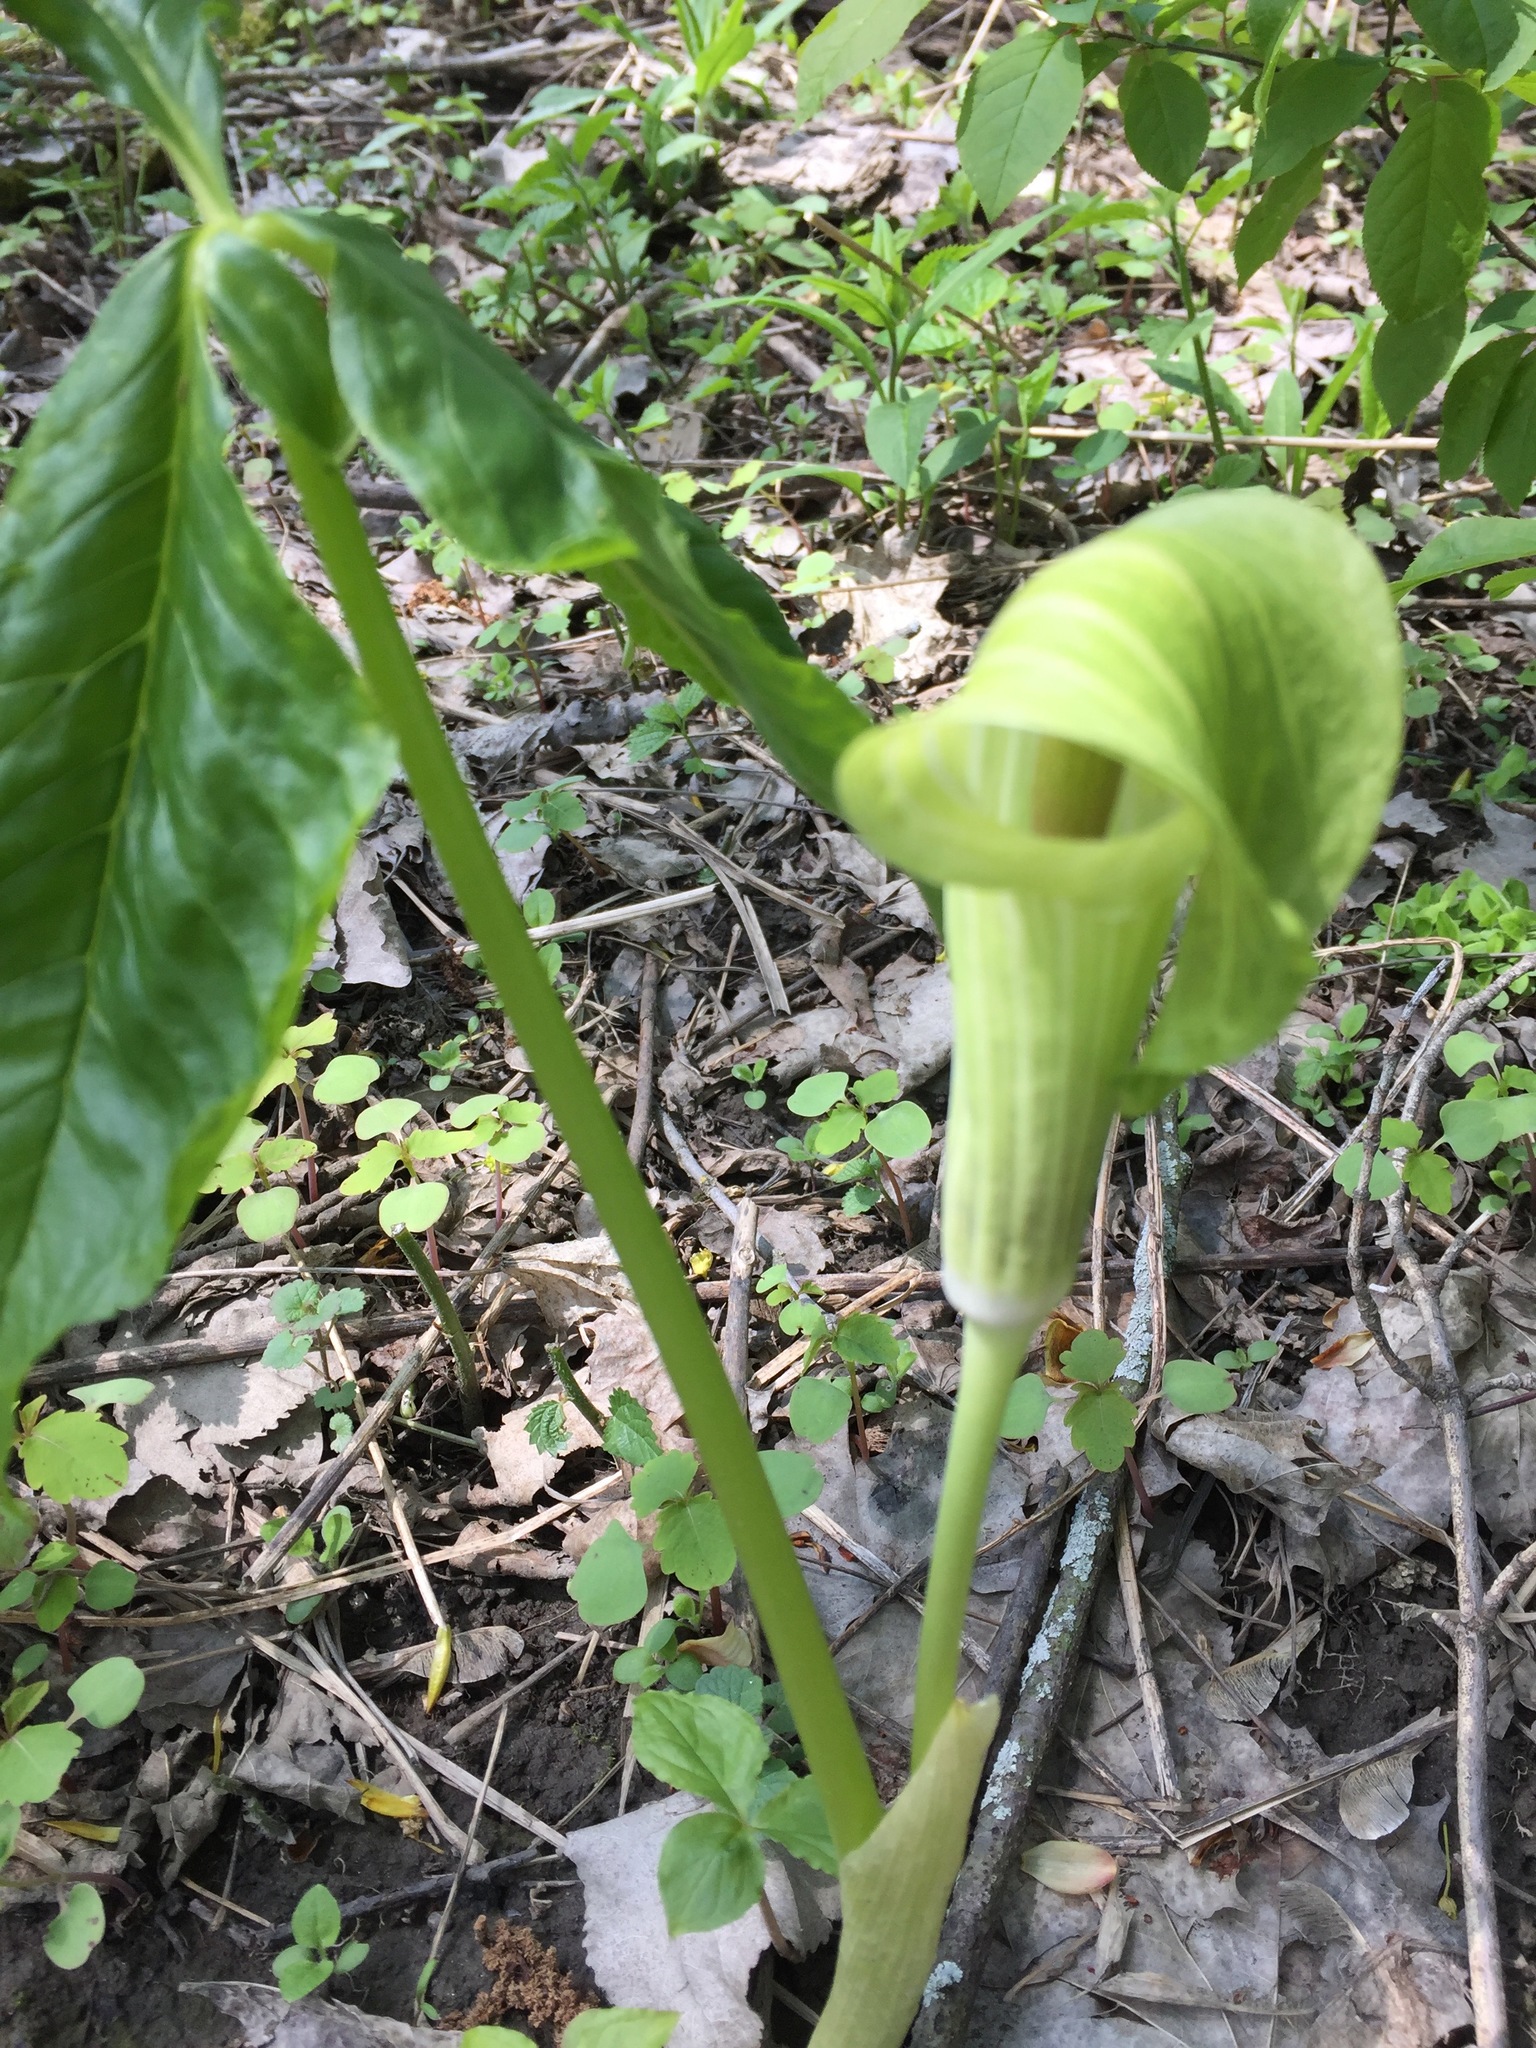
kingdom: Plantae
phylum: Tracheophyta
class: Liliopsida
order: Alismatales
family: Araceae
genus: Arisaema
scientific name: Arisaema triphyllum
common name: Jack-in-the-pulpit
